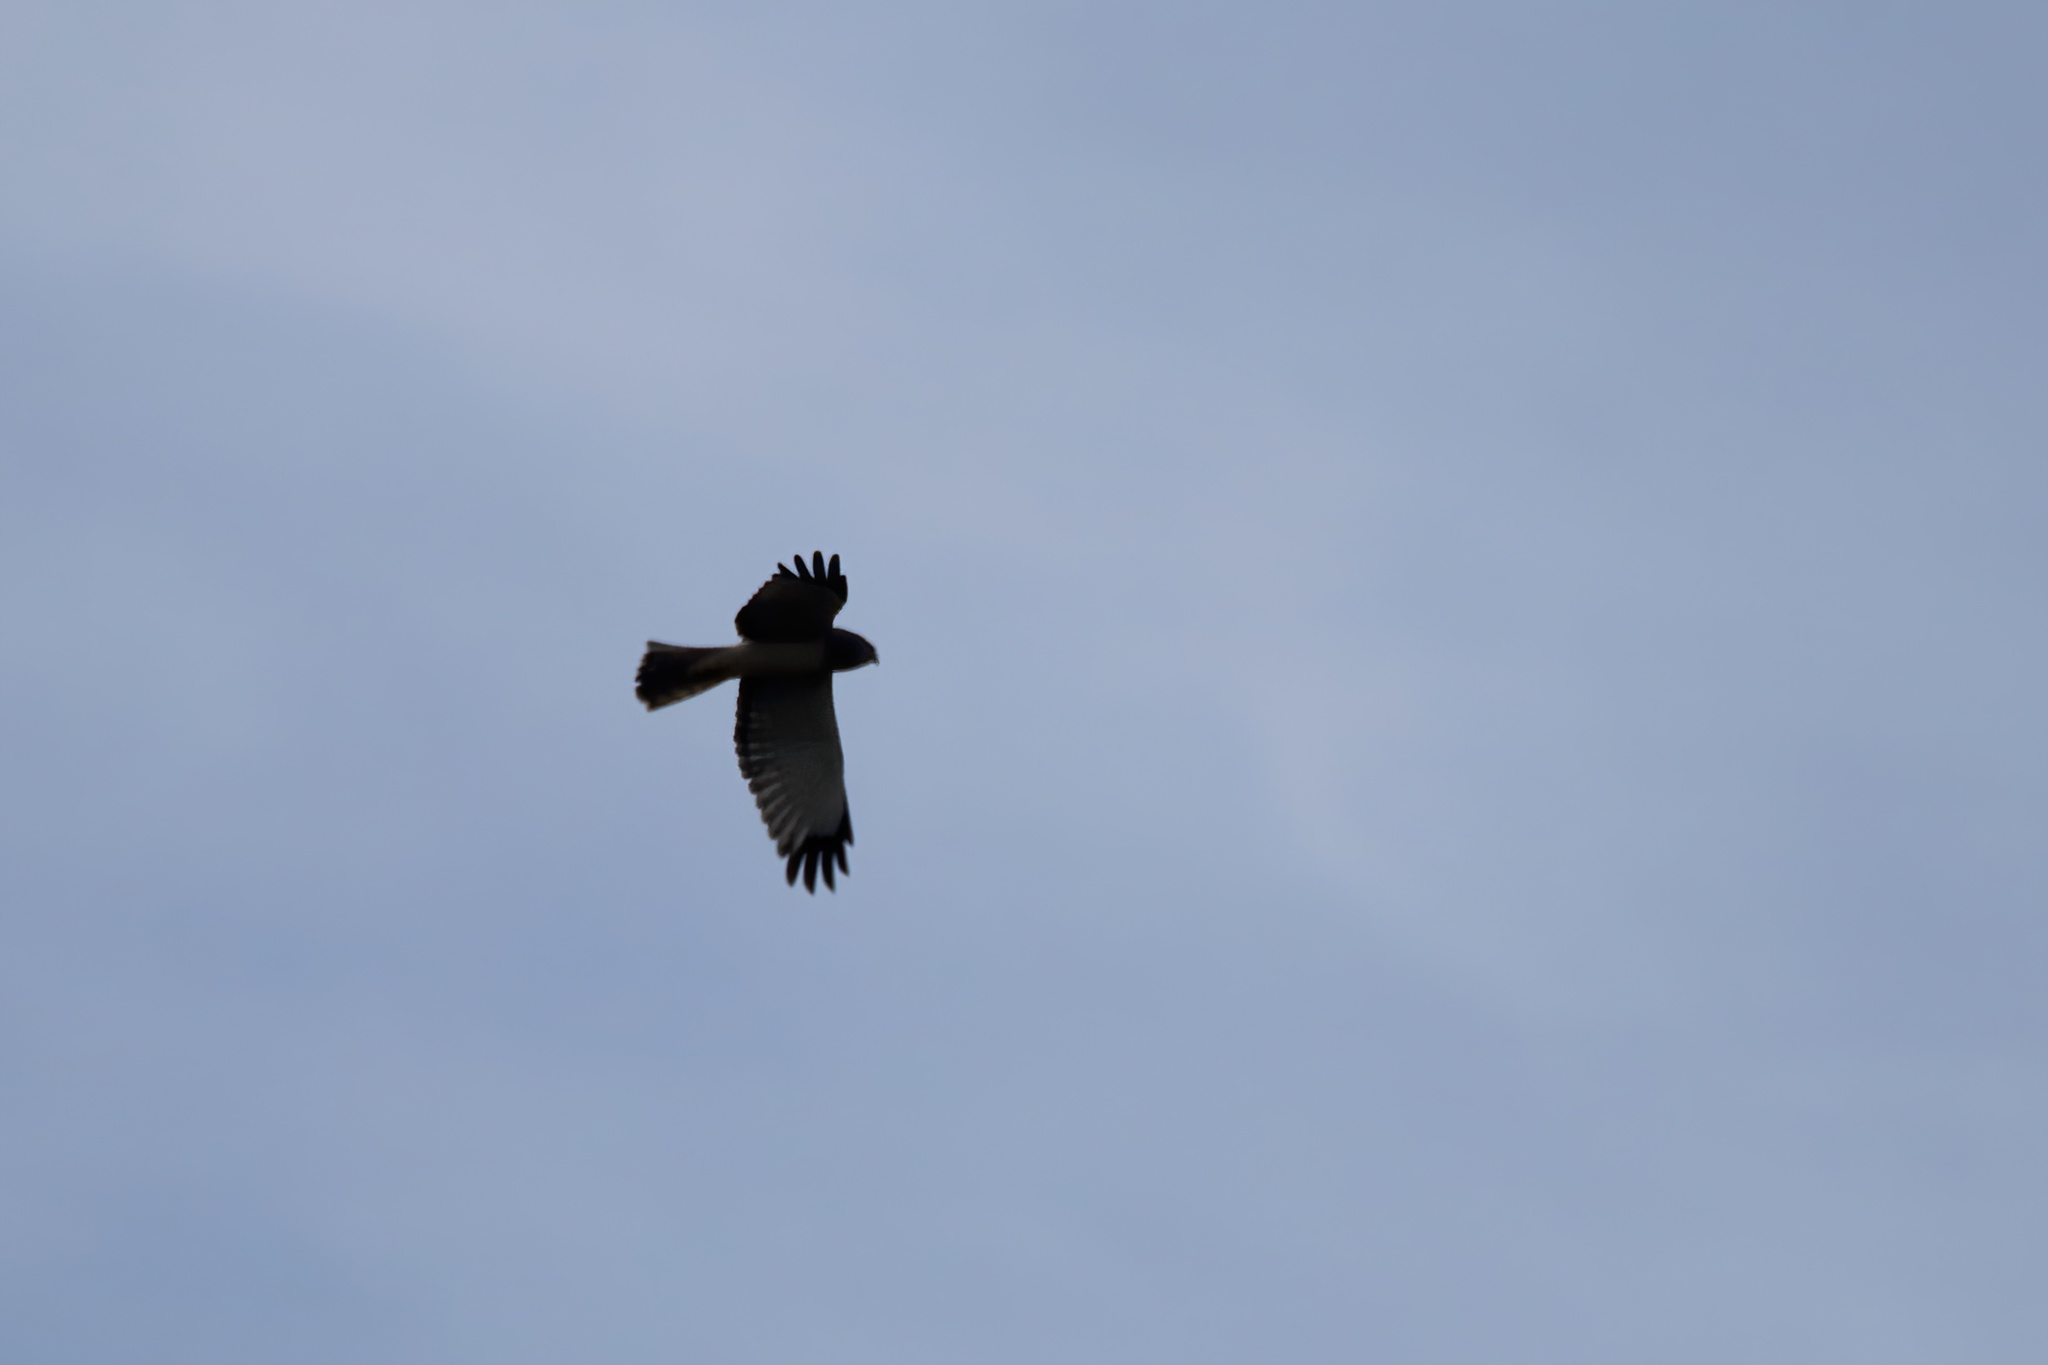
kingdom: Animalia
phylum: Chordata
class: Aves
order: Accipitriformes
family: Accipitridae
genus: Circus
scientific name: Circus cyaneus
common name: Hen harrier
